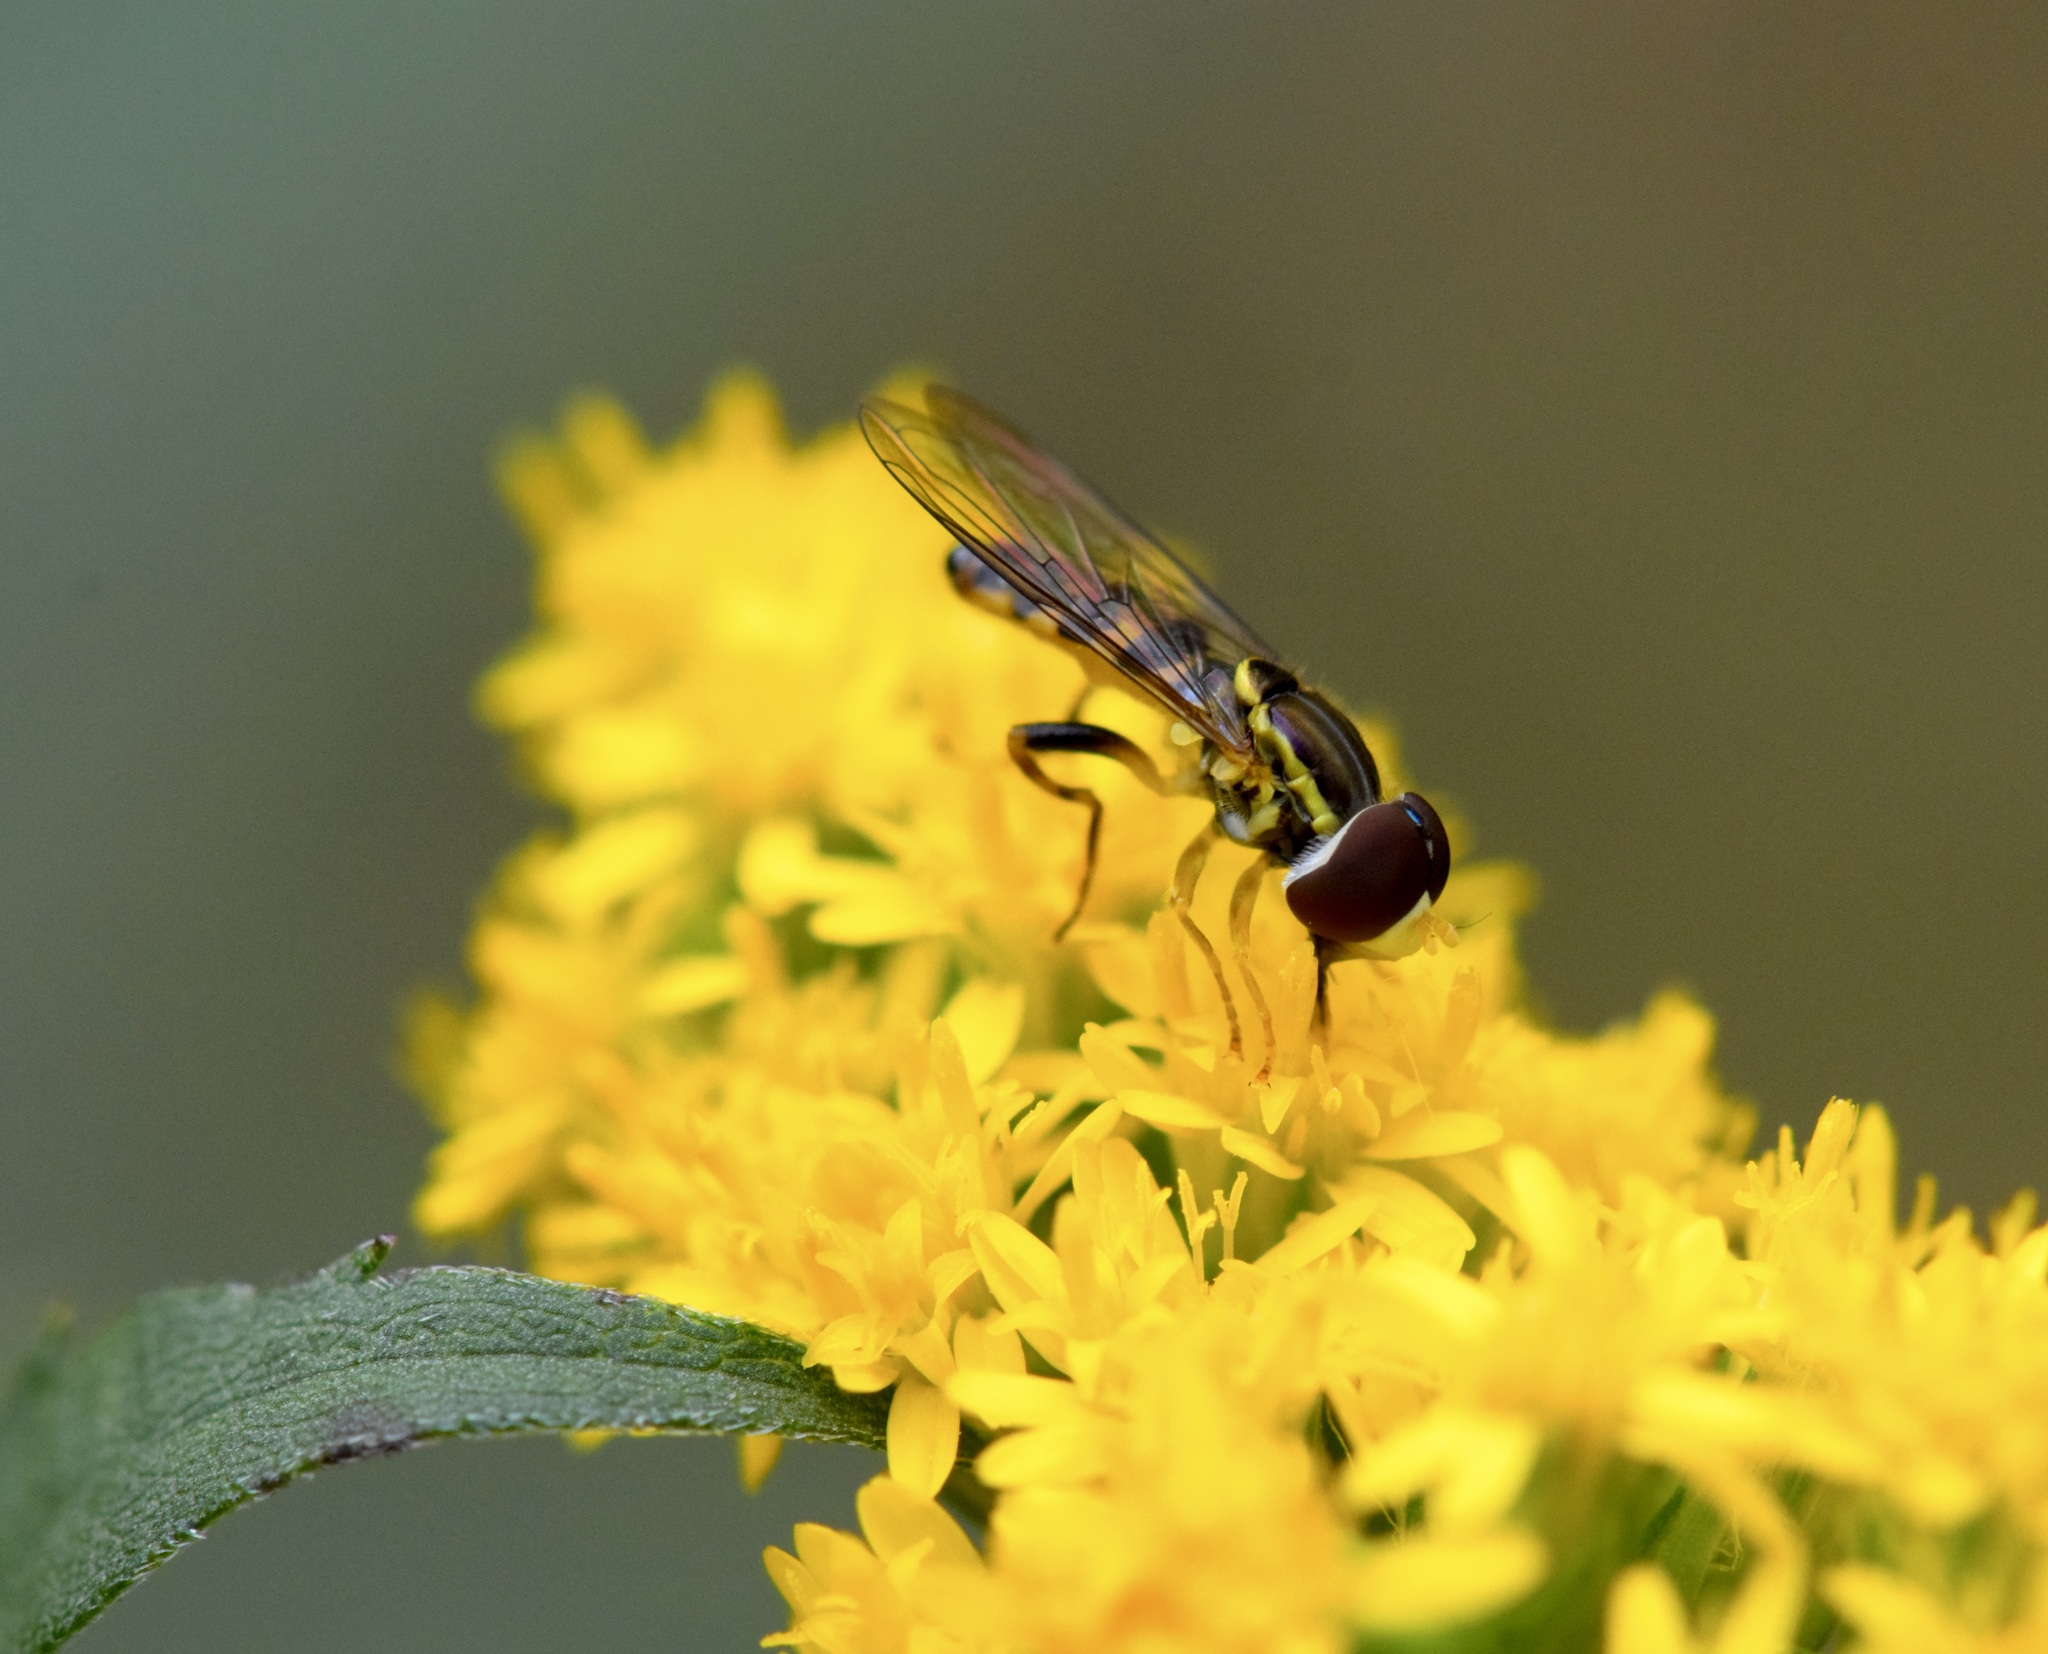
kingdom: Animalia
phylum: Arthropoda
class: Insecta
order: Diptera
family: Syrphidae
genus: Toxomerus
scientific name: Toxomerus geminatus
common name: Eastern calligrapher
